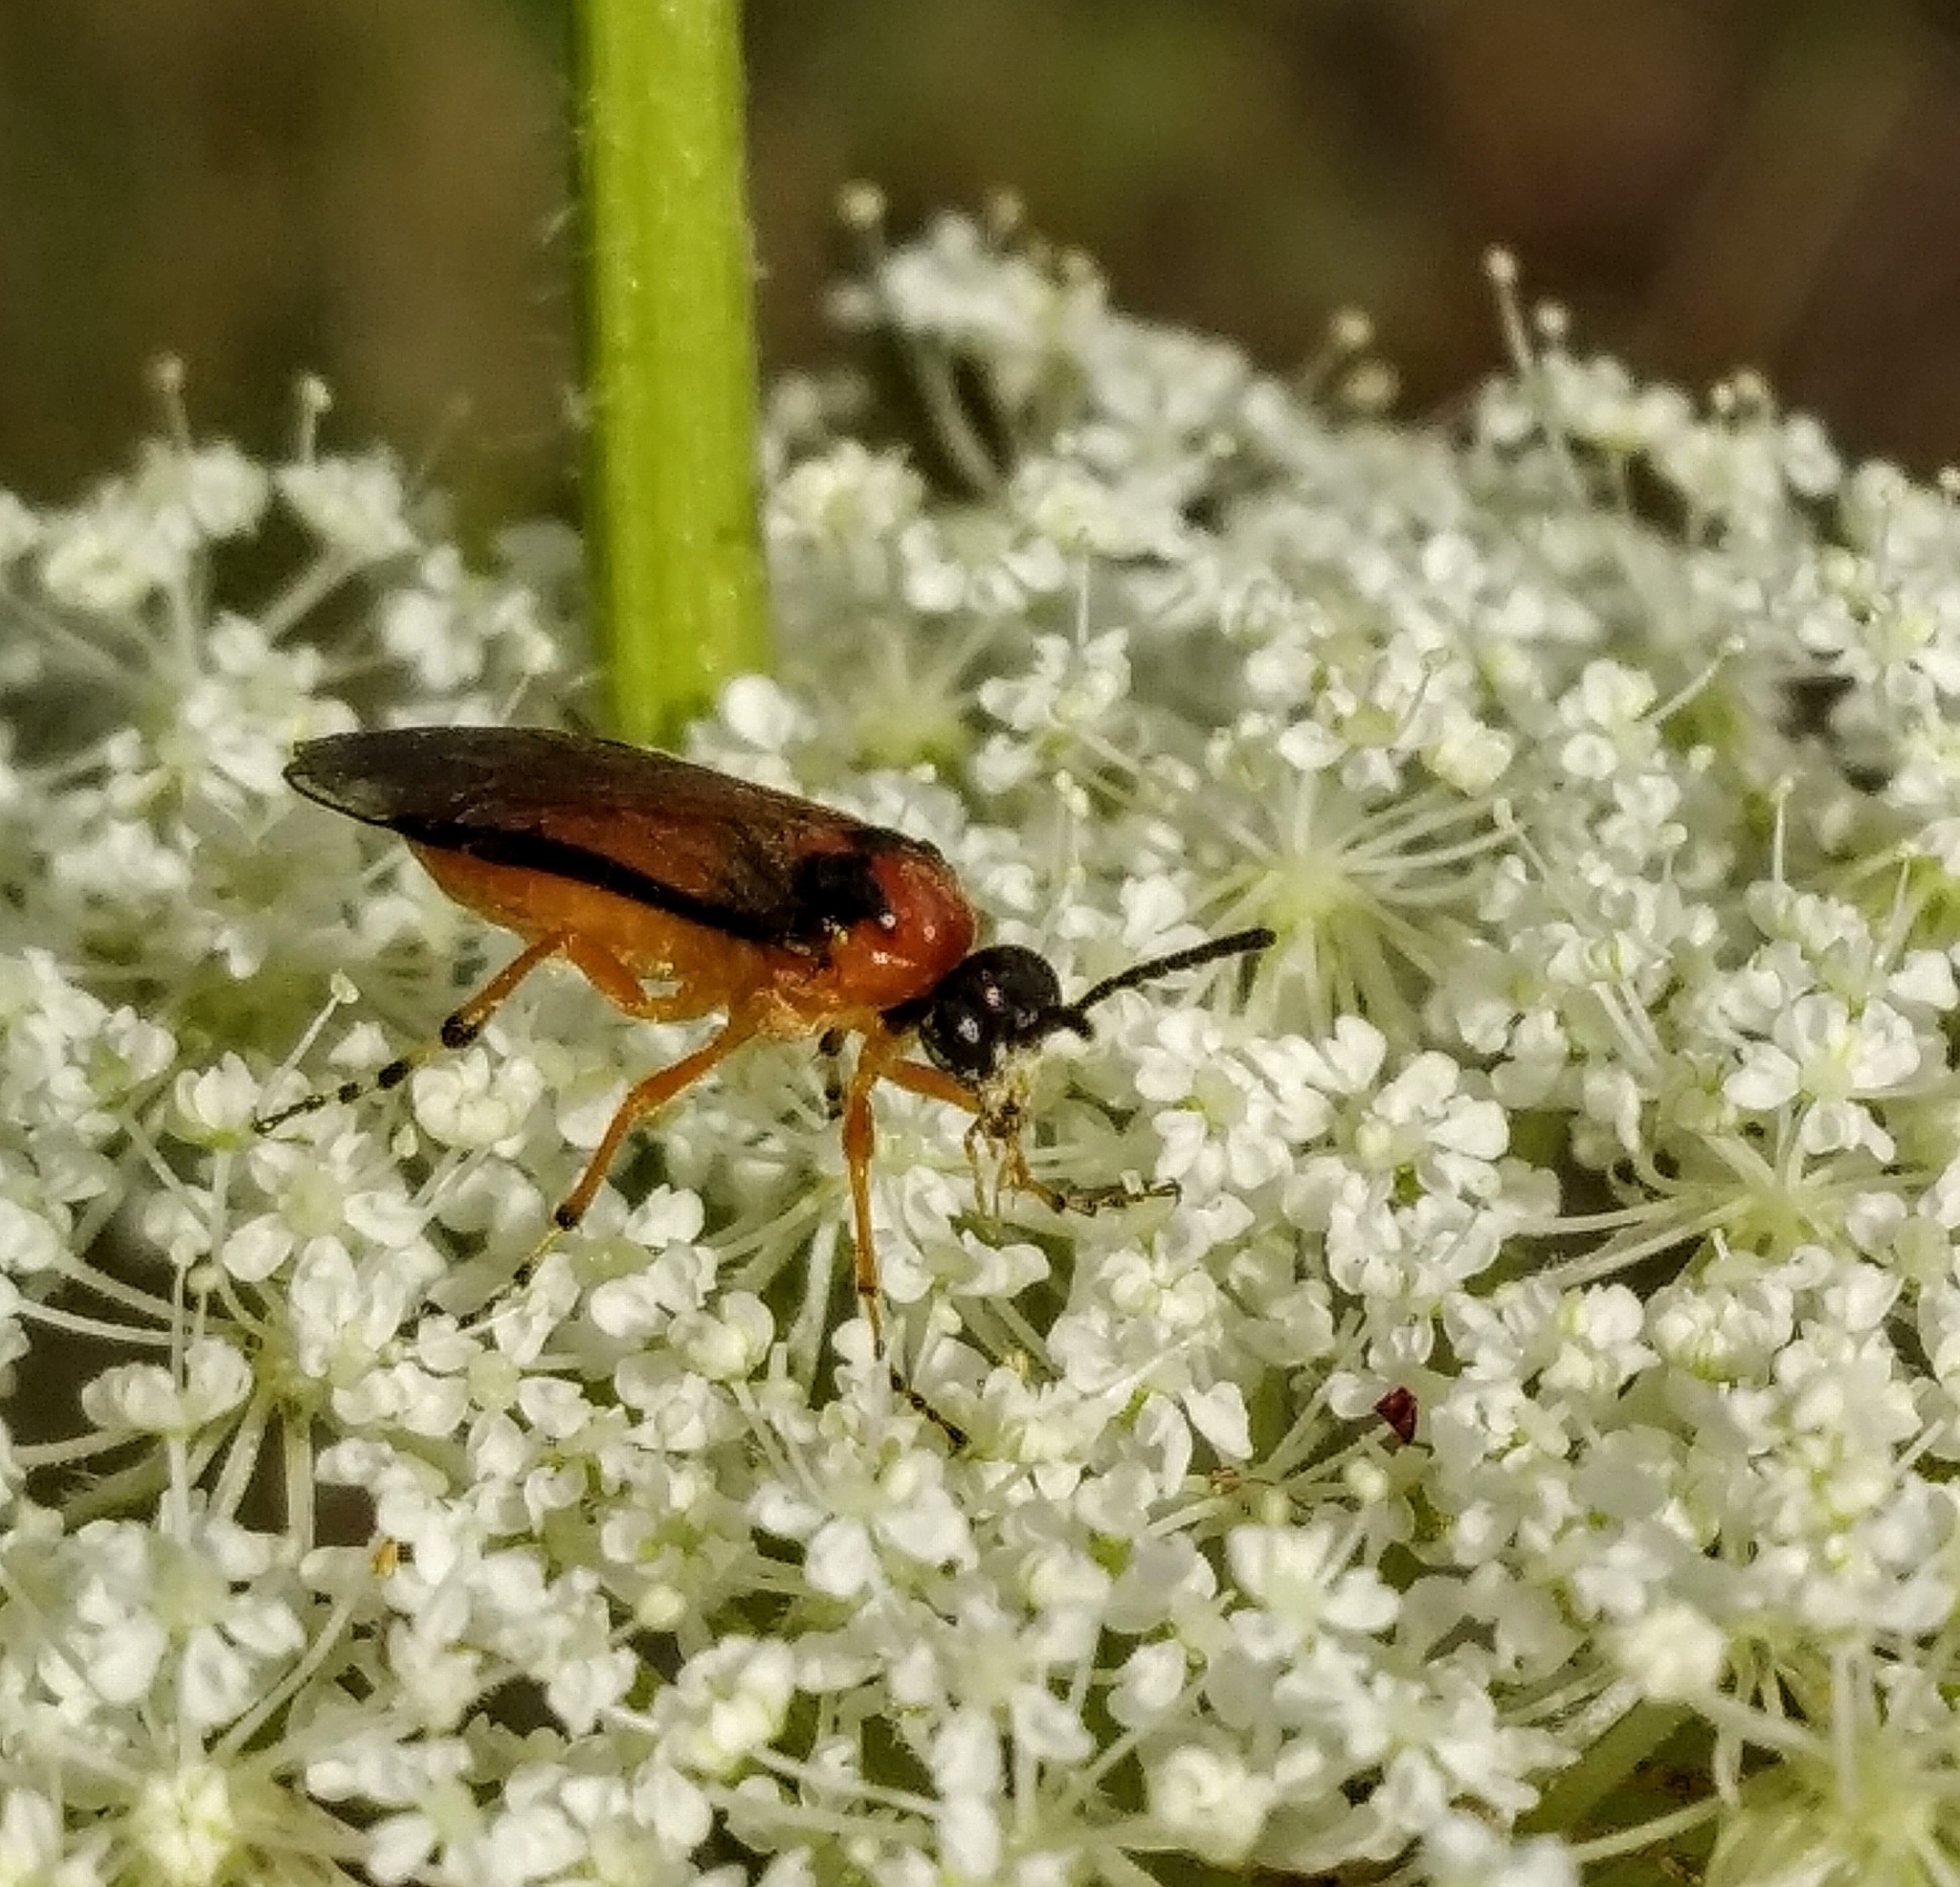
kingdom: Animalia
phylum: Arthropoda
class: Insecta
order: Hymenoptera
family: Tenthredinidae
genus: Athalia
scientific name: Athalia rosae
